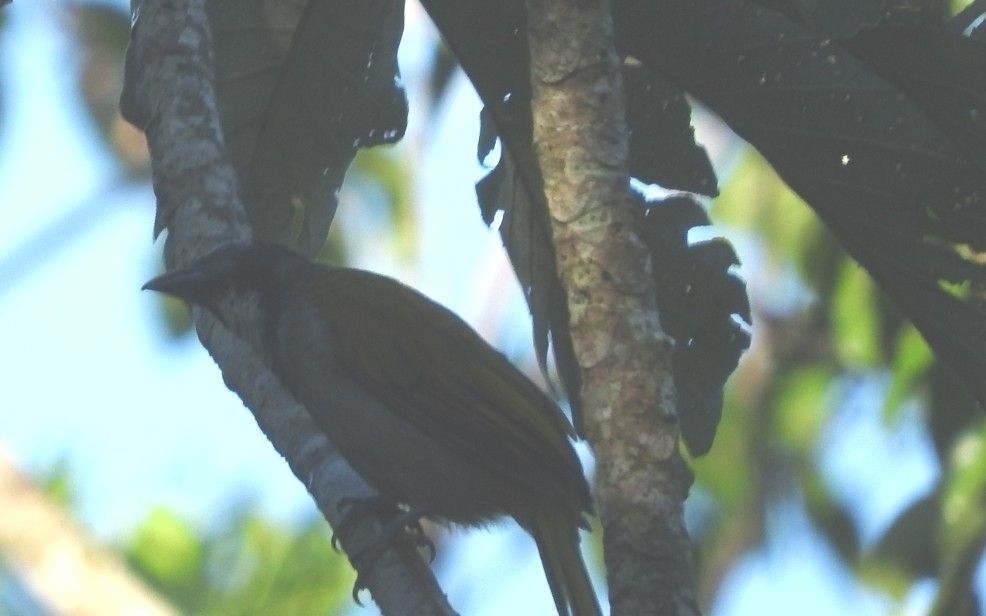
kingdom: Animalia
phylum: Chordata
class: Aves
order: Passeriformes
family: Thraupidae
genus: Saltator
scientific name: Saltator atriceps
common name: Black-headed saltator
